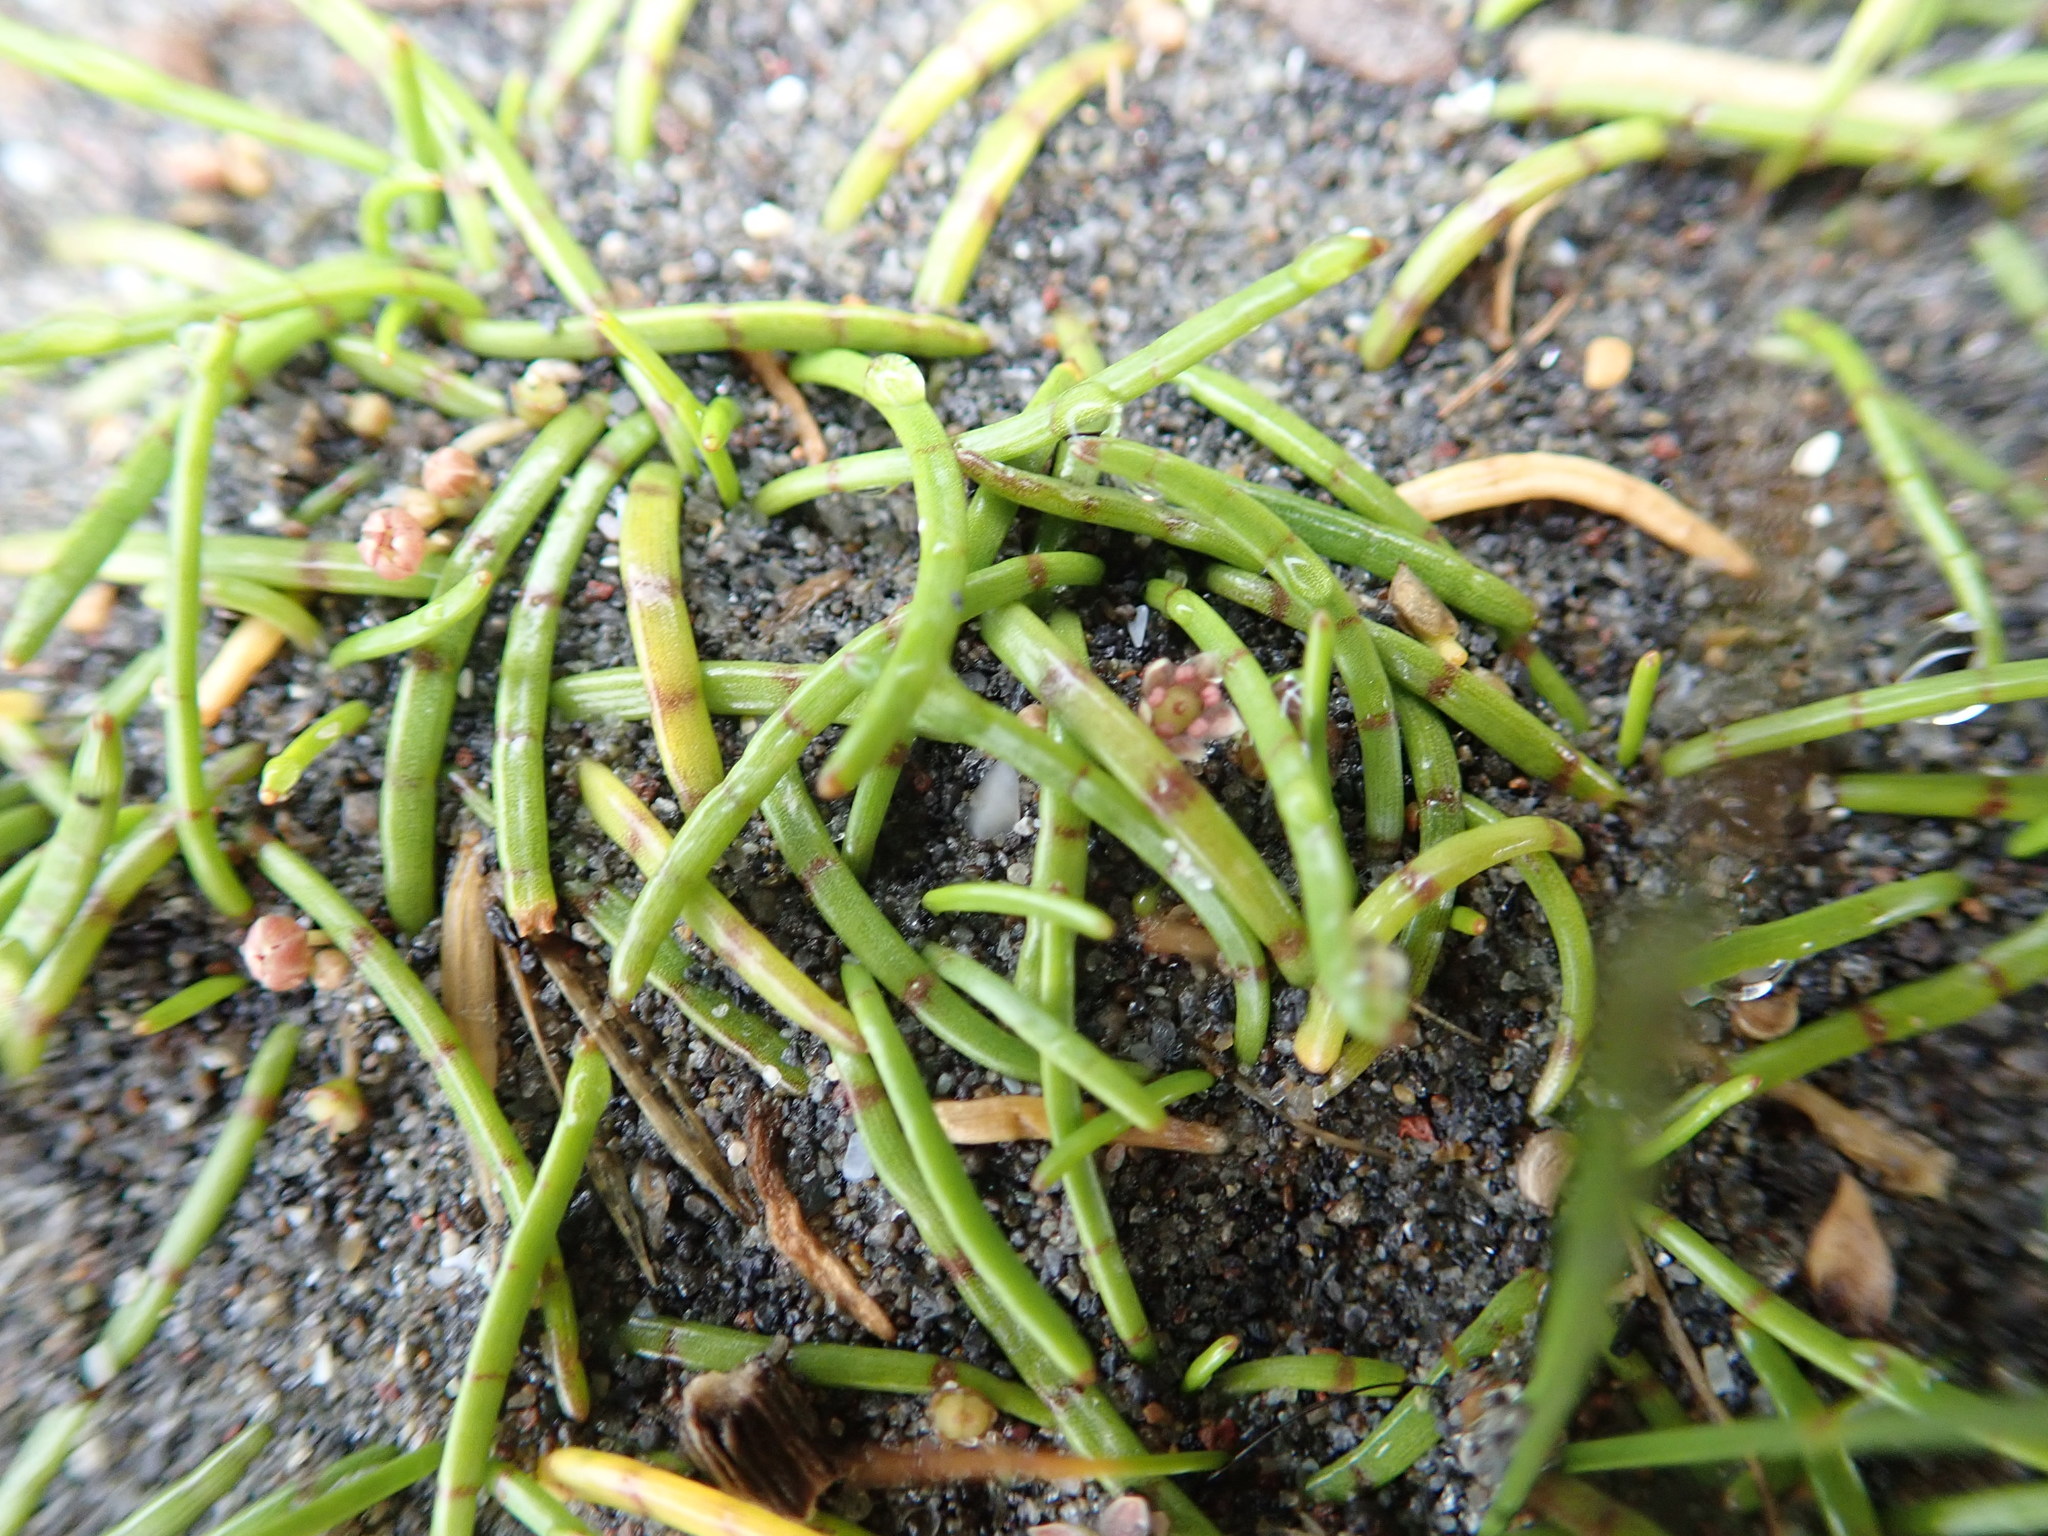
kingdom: Plantae
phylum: Tracheophyta
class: Magnoliopsida
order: Apiales
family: Apiaceae
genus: Lilaeopsis
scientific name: Lilaeopsis novae-zelandiae
